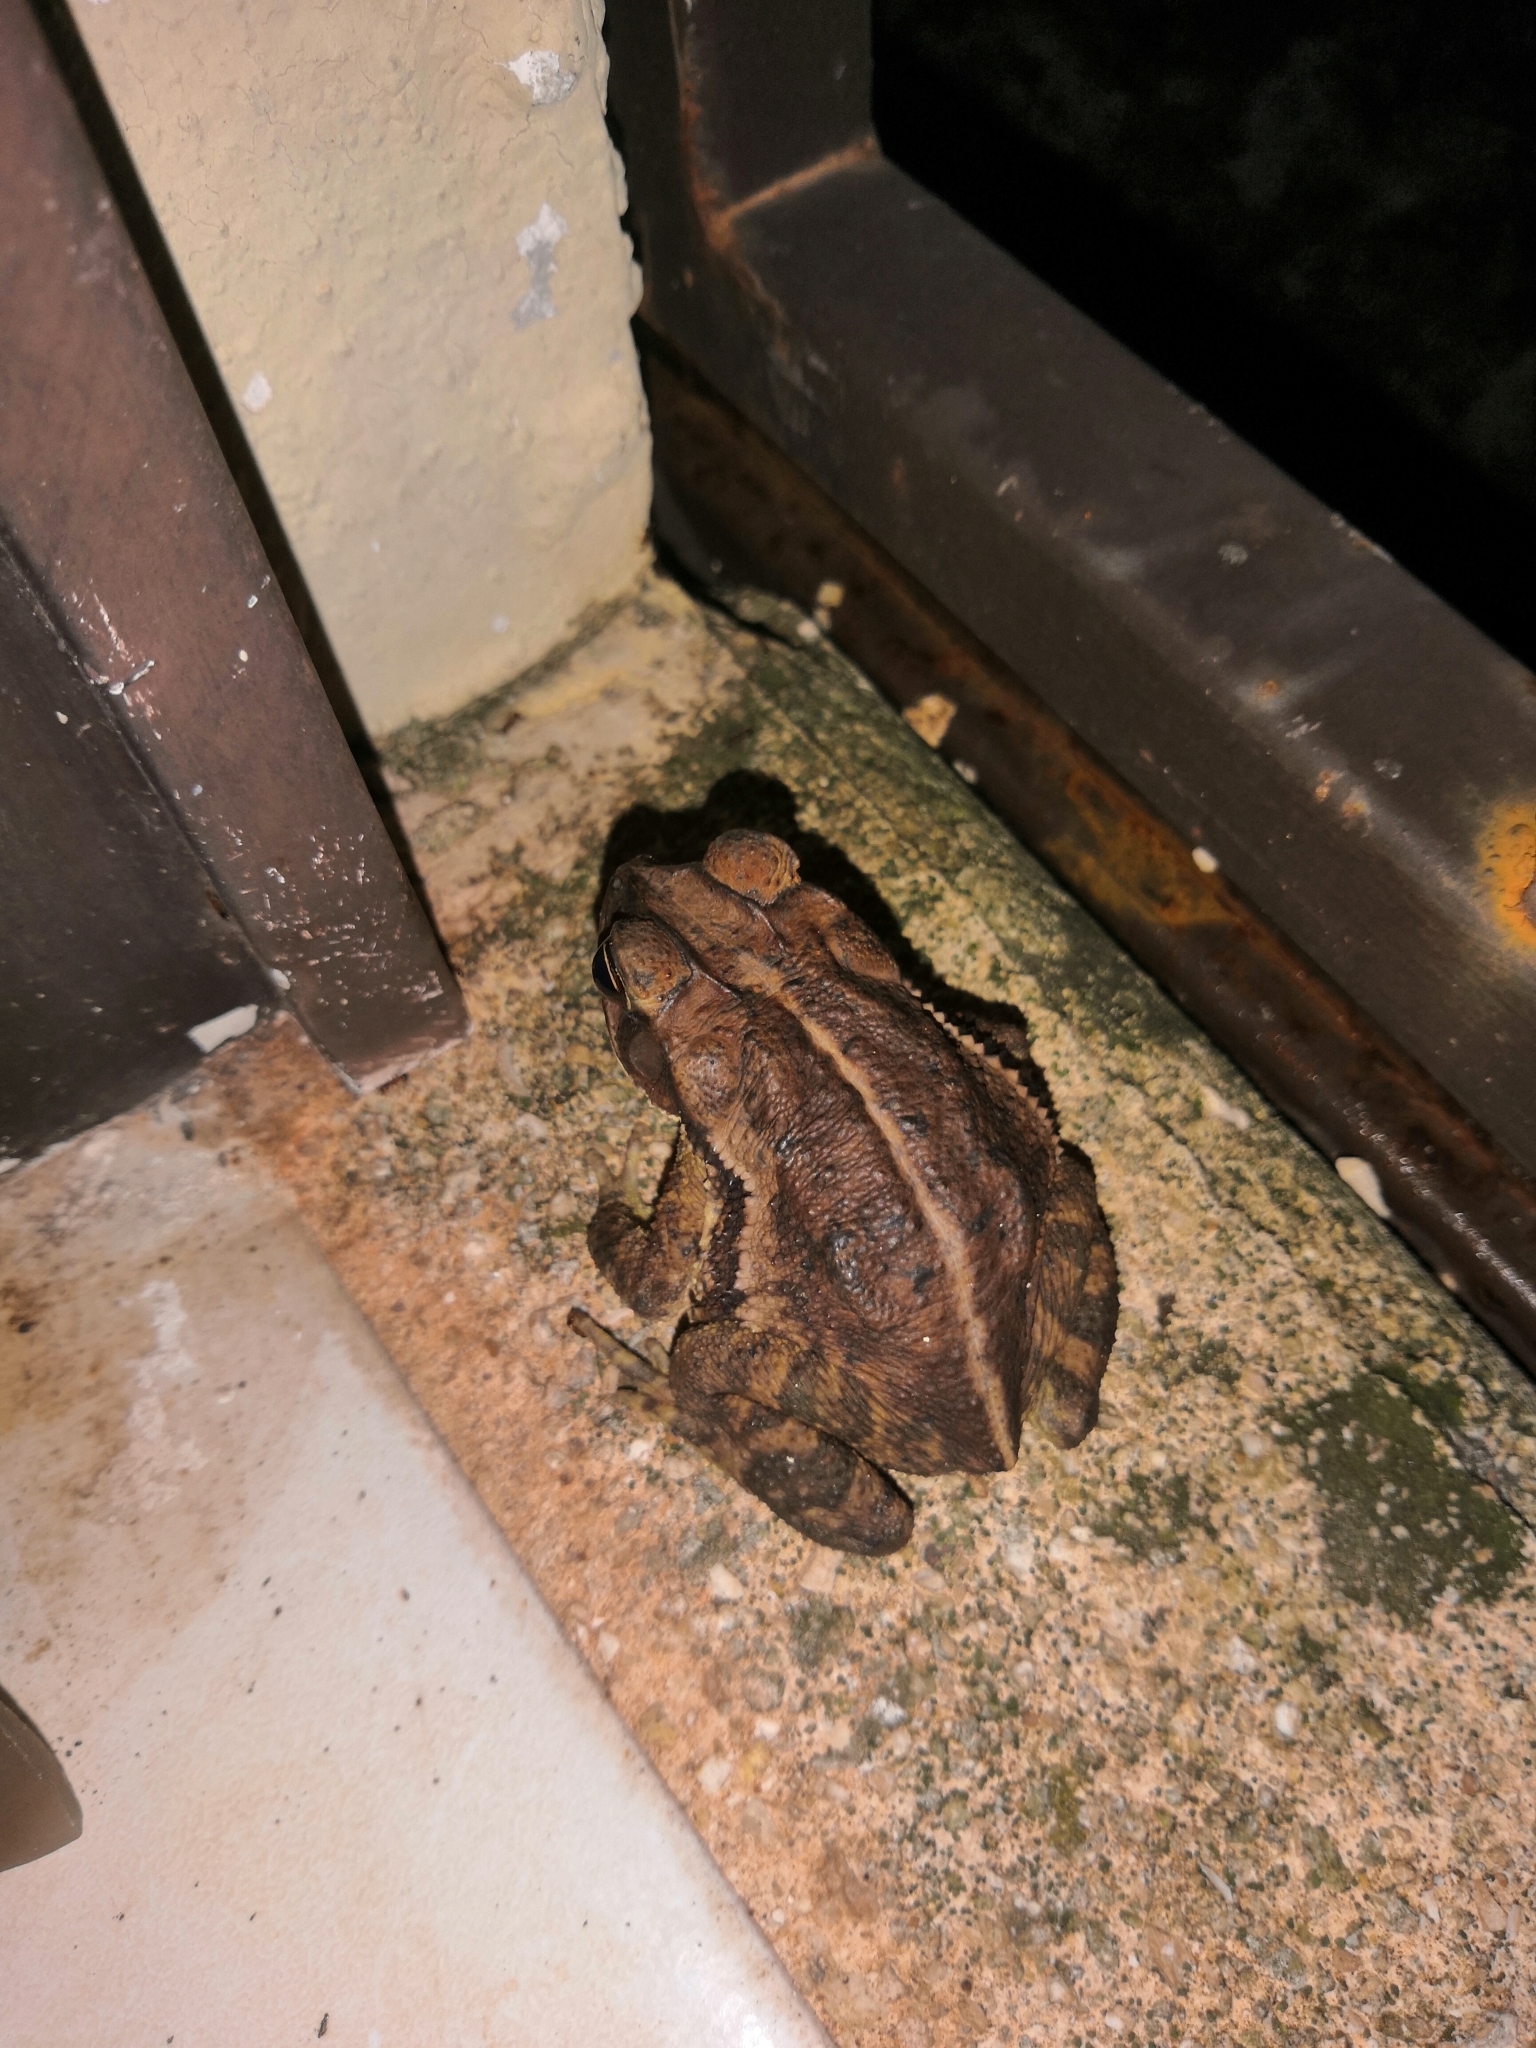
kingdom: Animalia
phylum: Chordata
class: Amphibia
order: Anura
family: Bufonidae
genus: Incilius
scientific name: Incilius valliceps
